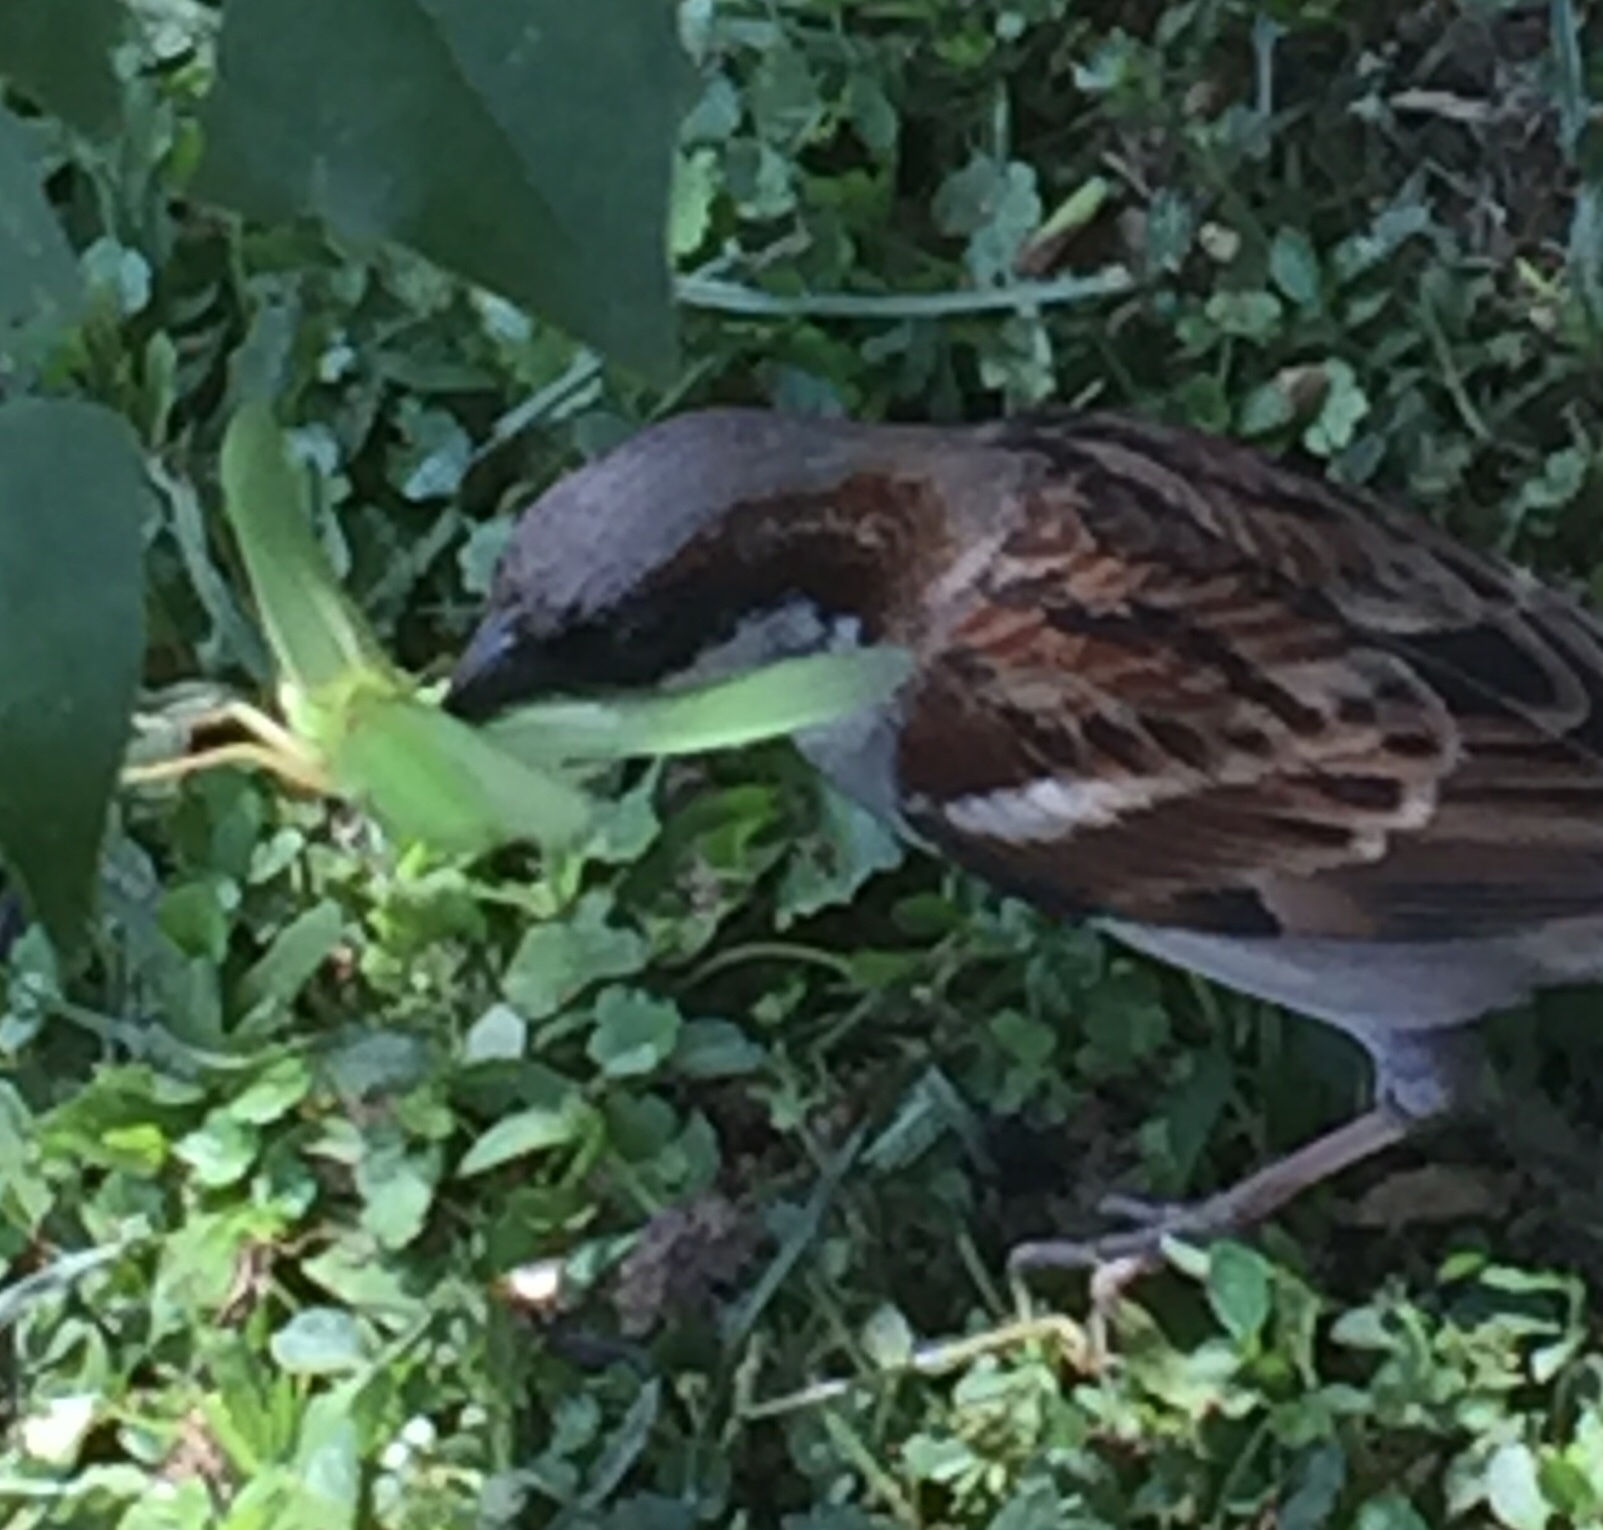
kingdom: Animalia
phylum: Chordata
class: Aves
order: Passeriformes
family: Passeridae
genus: Passer
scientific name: Passer domesticus
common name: House sparrow
